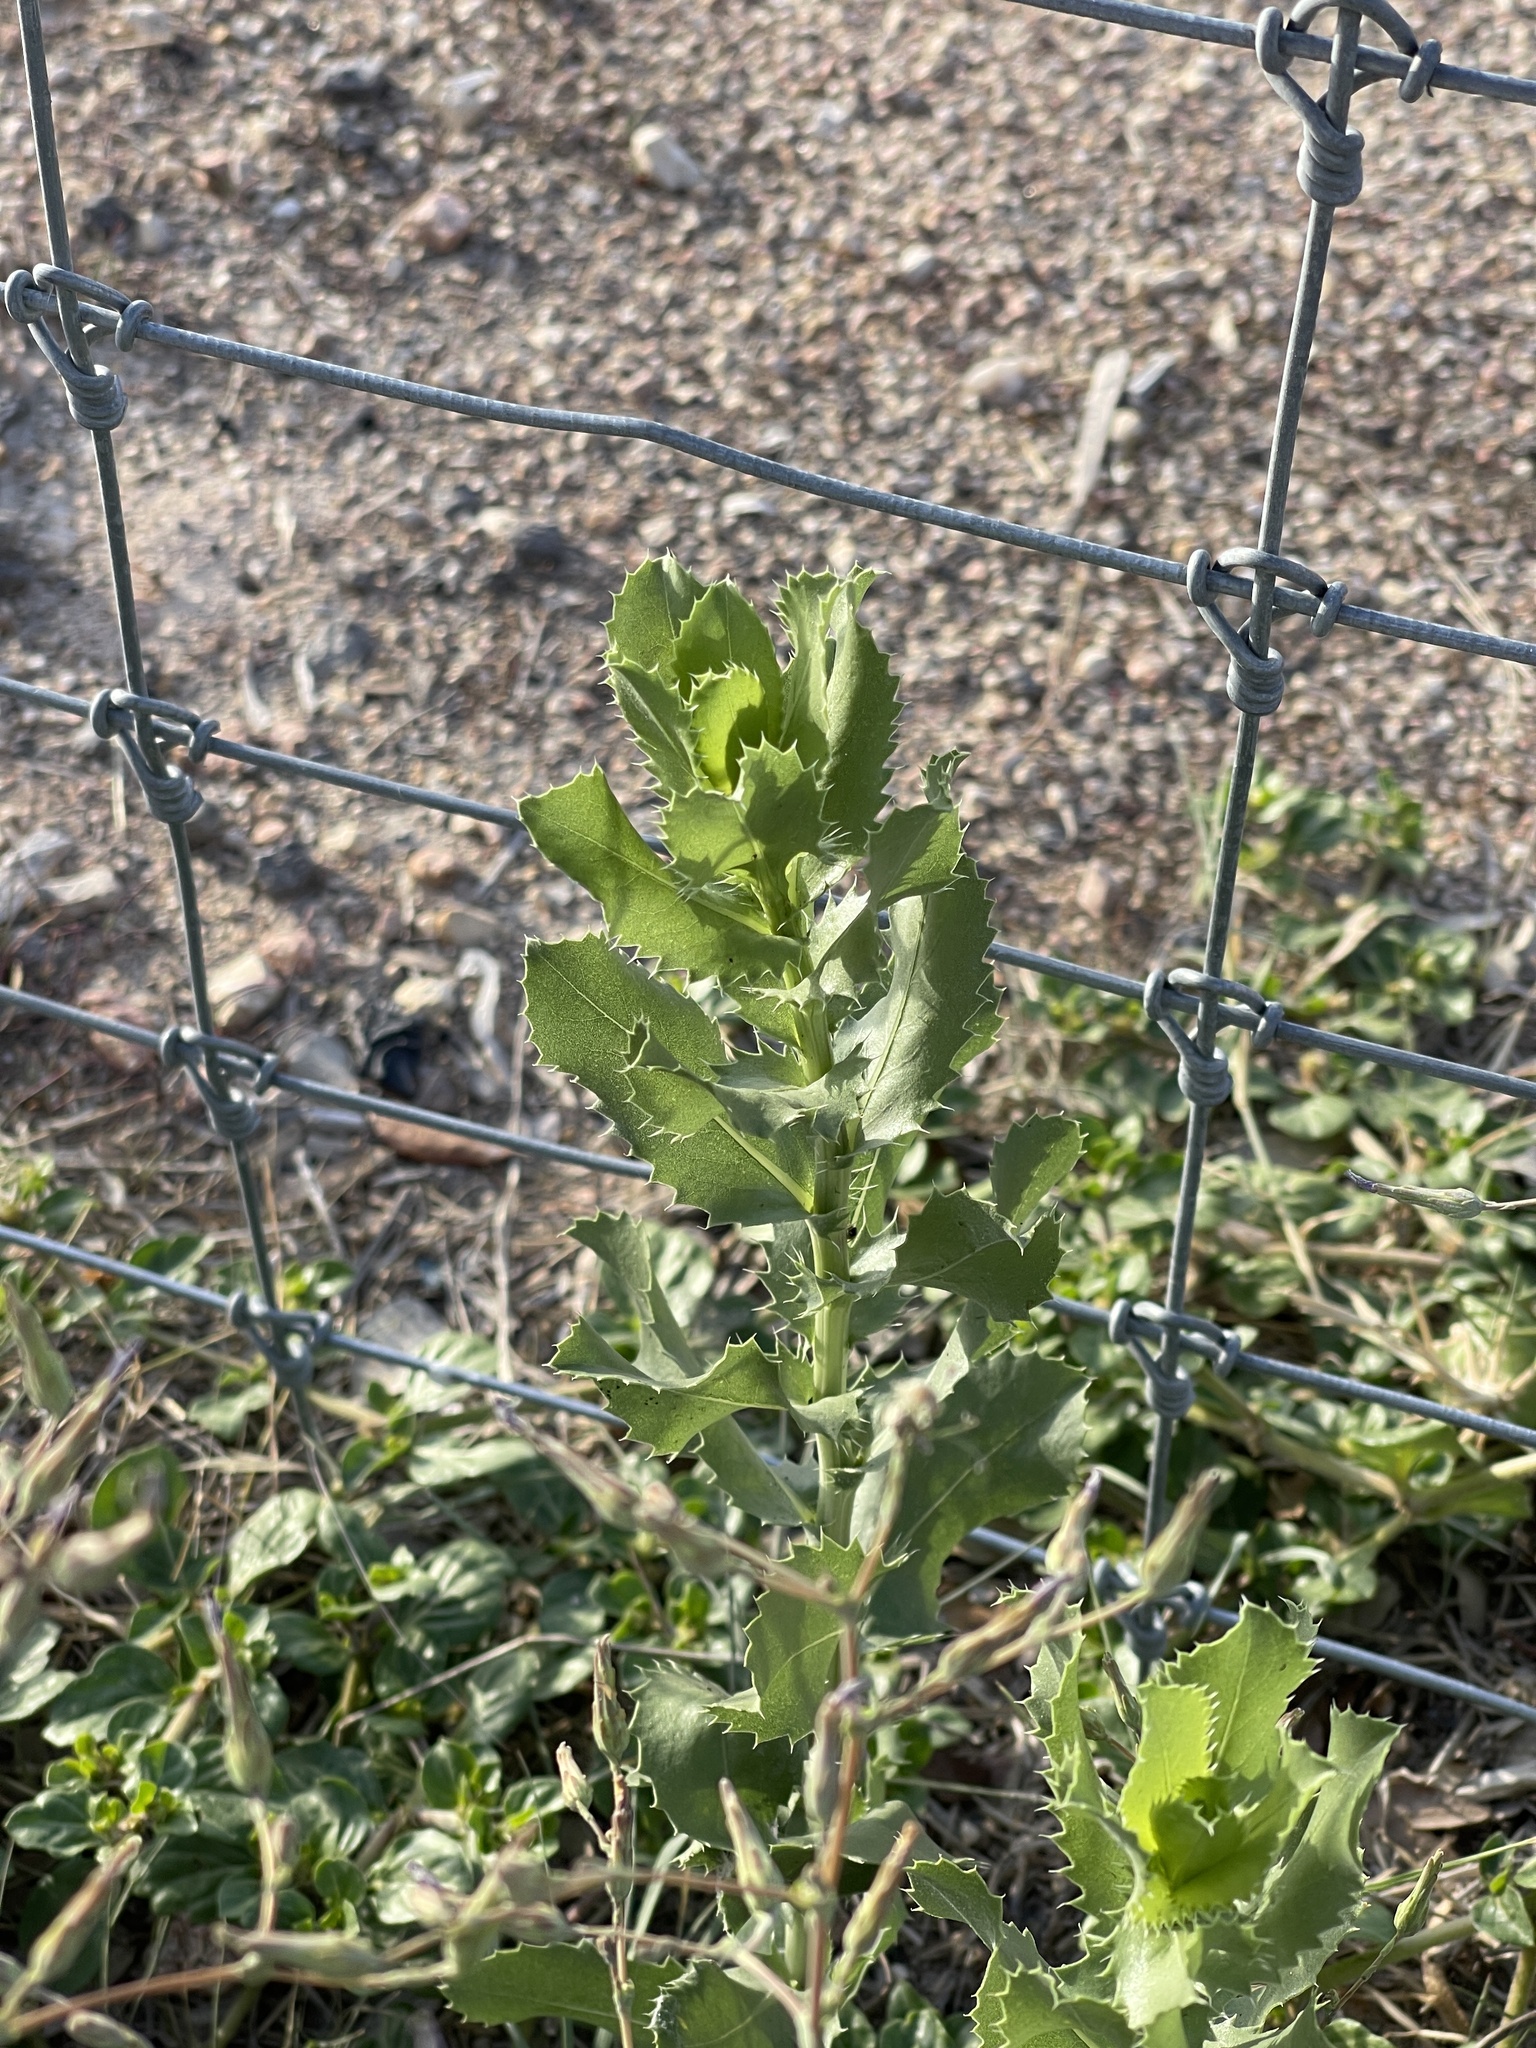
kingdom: Plantae
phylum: Tracheophyta
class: Magnoliopsida
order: Asterales
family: Asteraceae
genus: Grindelia
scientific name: Grindelia ciliata
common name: Goldenweed
